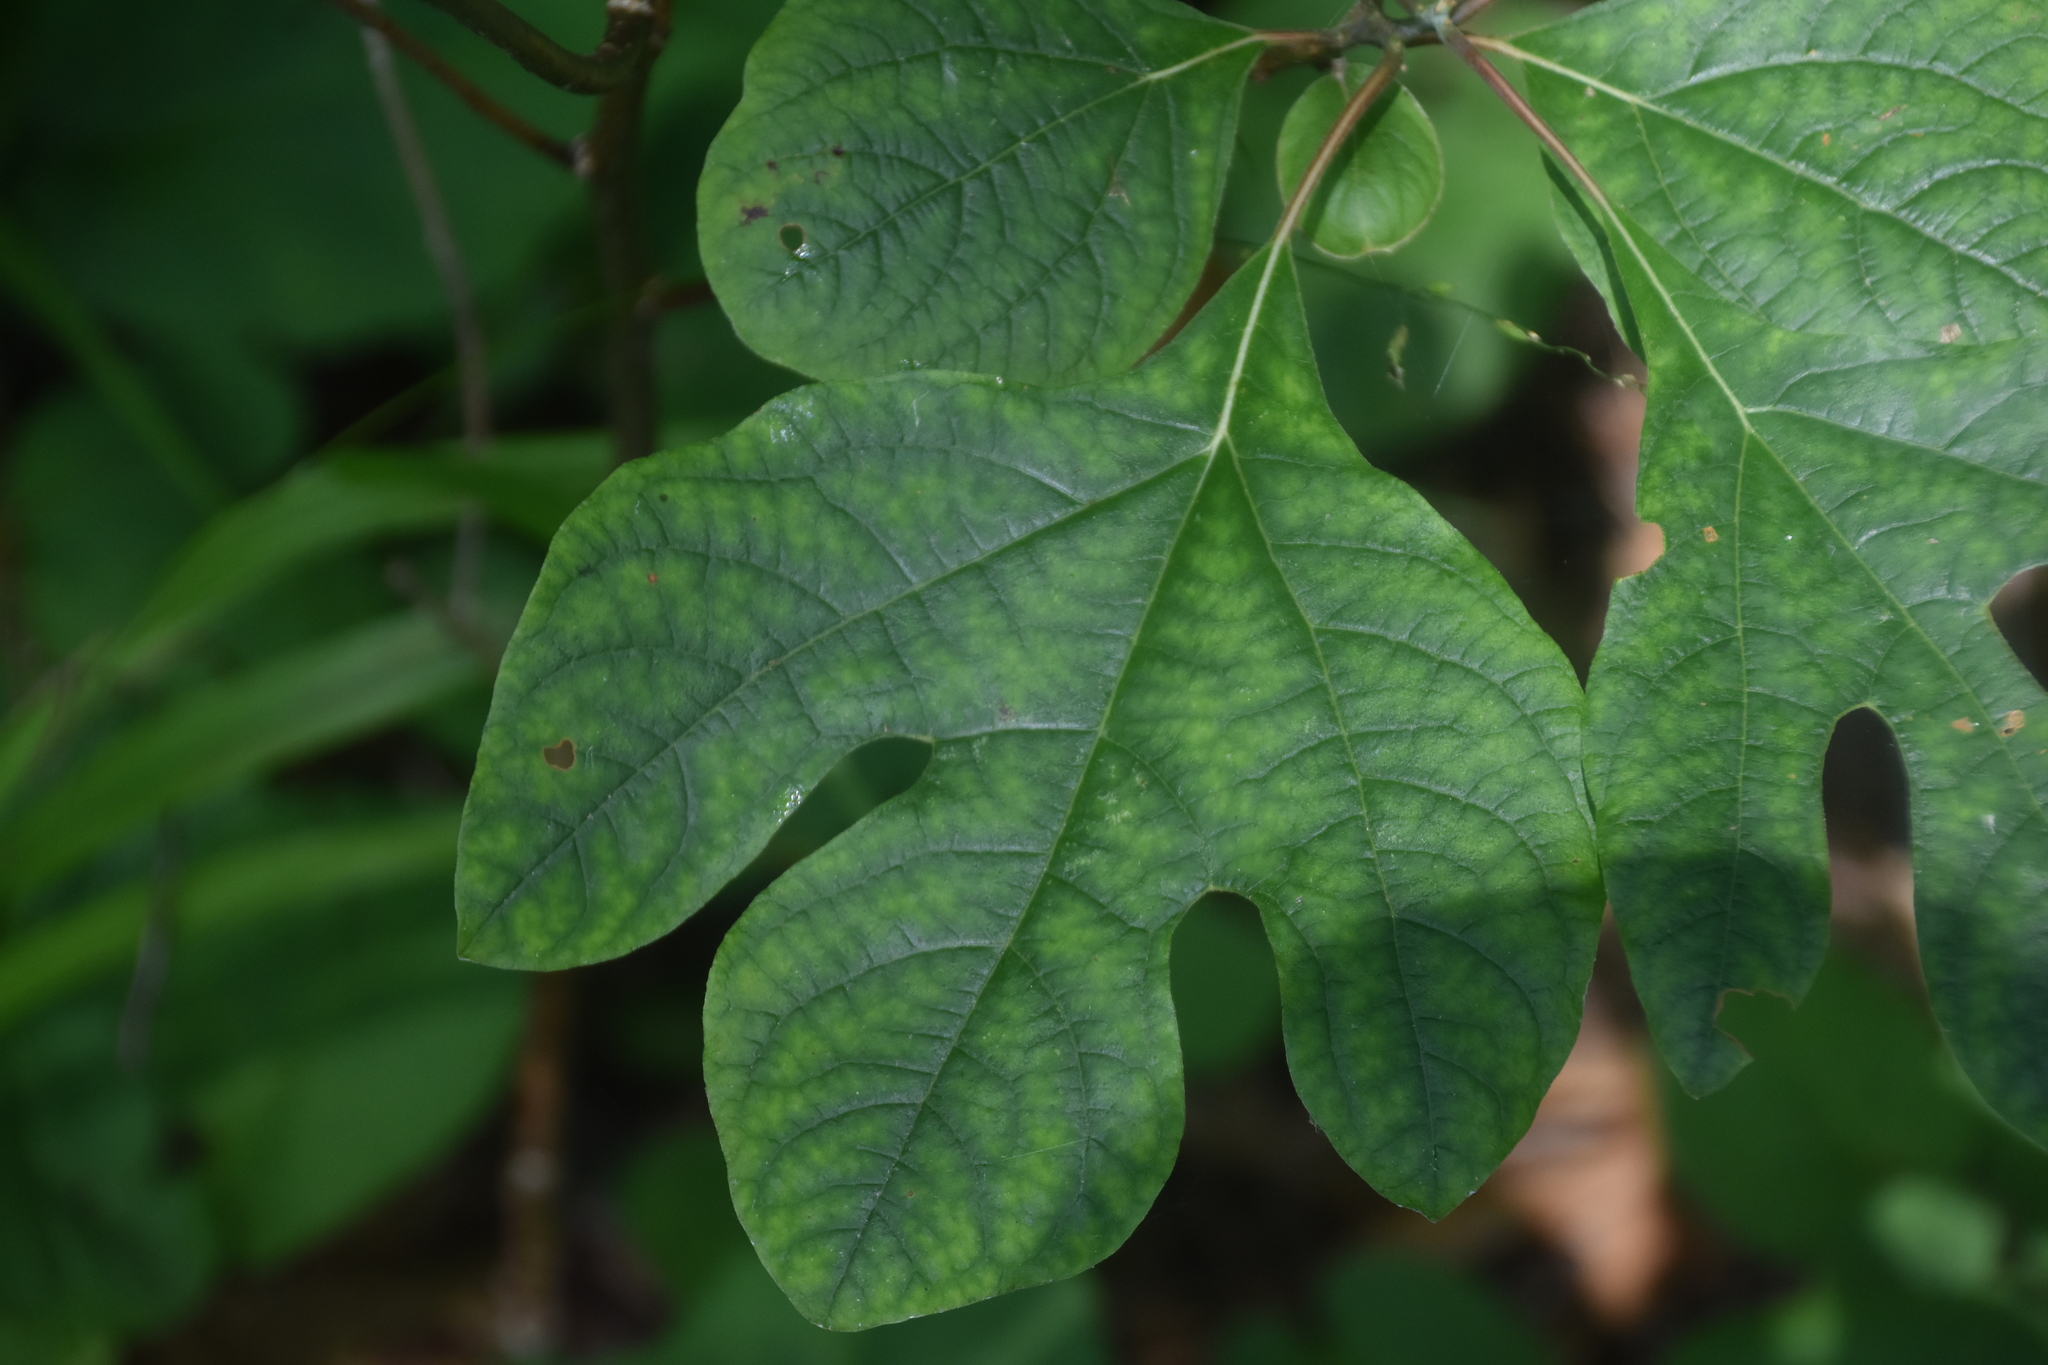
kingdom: Plantae
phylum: Tracheophyta
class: Magnoliopsida
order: Laurales
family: Lauraceae
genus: Sassafras
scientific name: Sassafras albidum
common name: Sassafras
